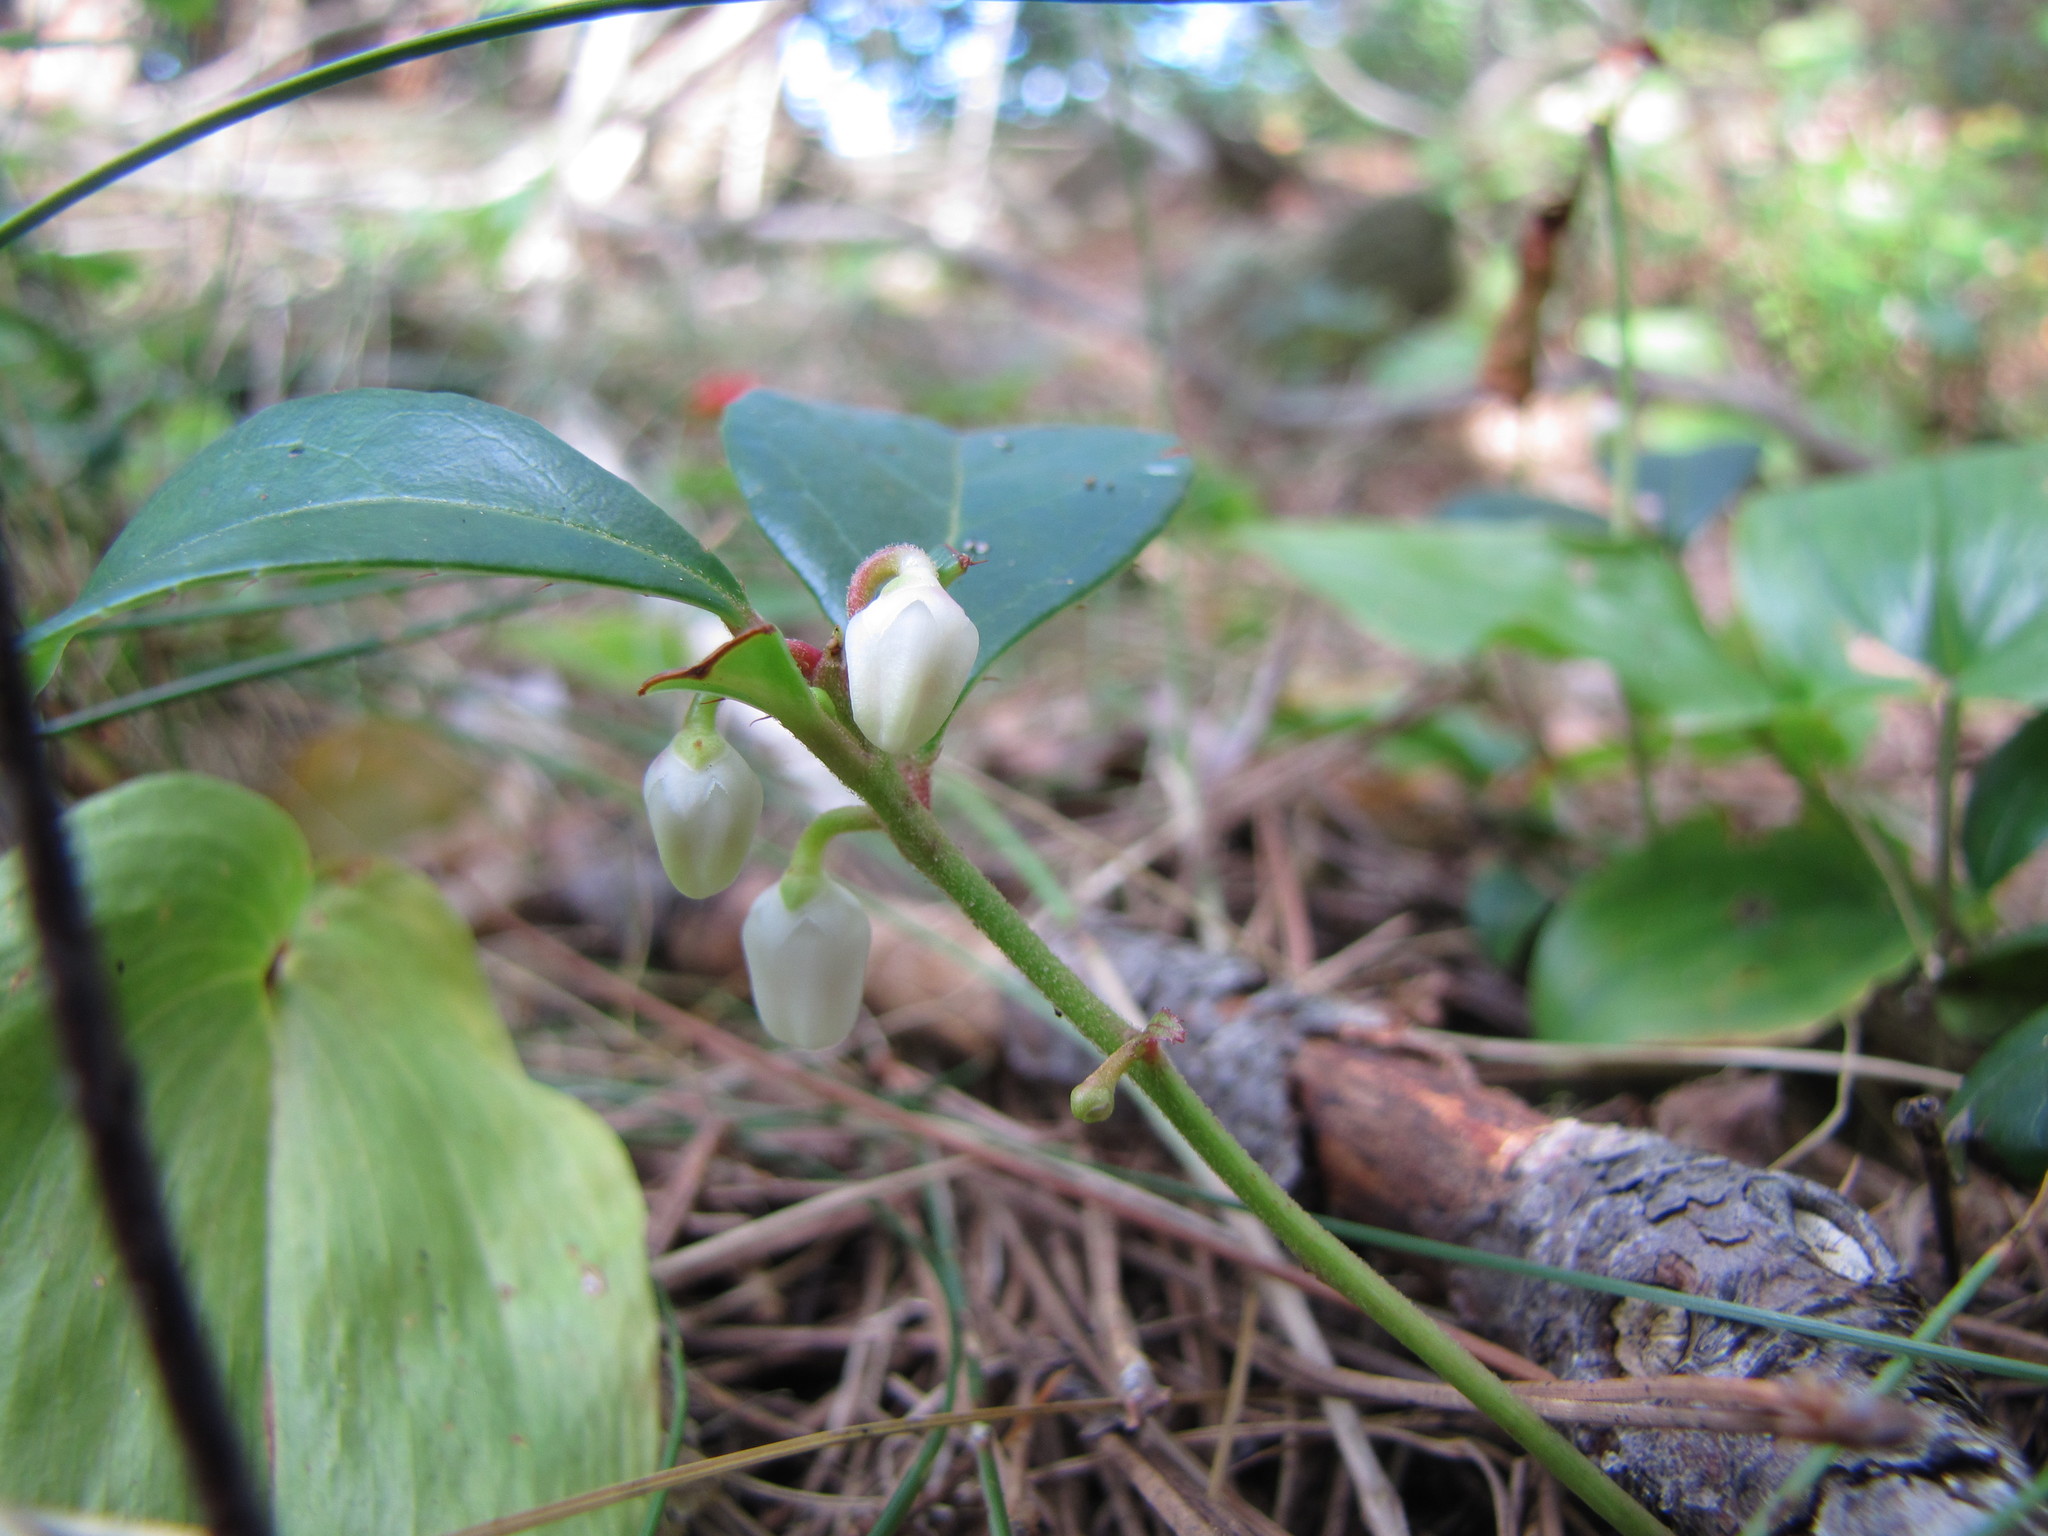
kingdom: Plantae
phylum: Tracheophyta
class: Magnoliopsida
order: Ericales
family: Ericaceae
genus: Gaultheria
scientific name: Gaultheria procumbens
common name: Checkerberry
